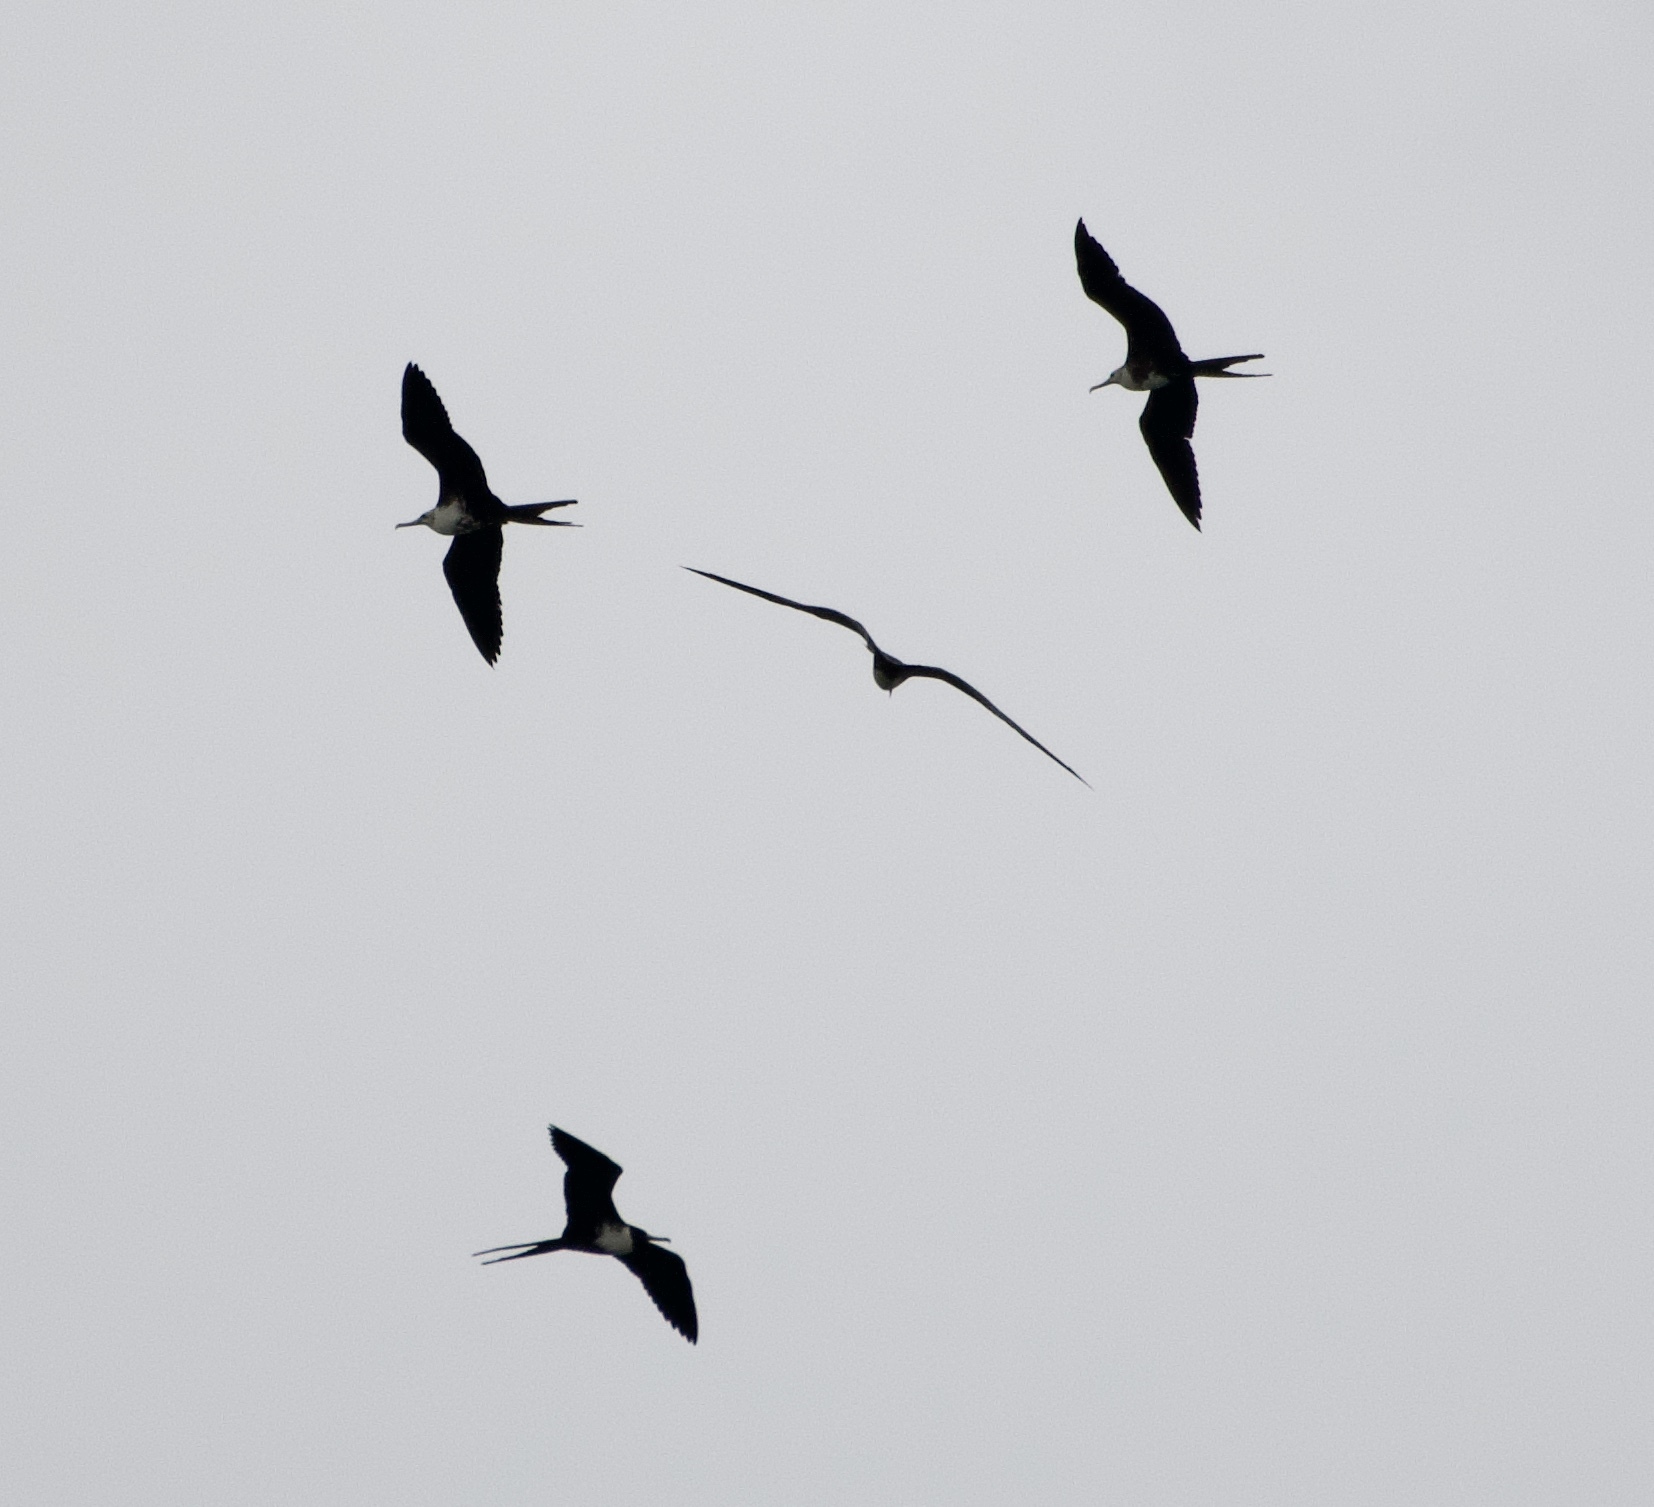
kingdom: Animalia
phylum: Chordata
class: Aves
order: Suliformes
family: Fregatidae
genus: Fregata
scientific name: Fregata magnificens
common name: Magnificent frigatebird
